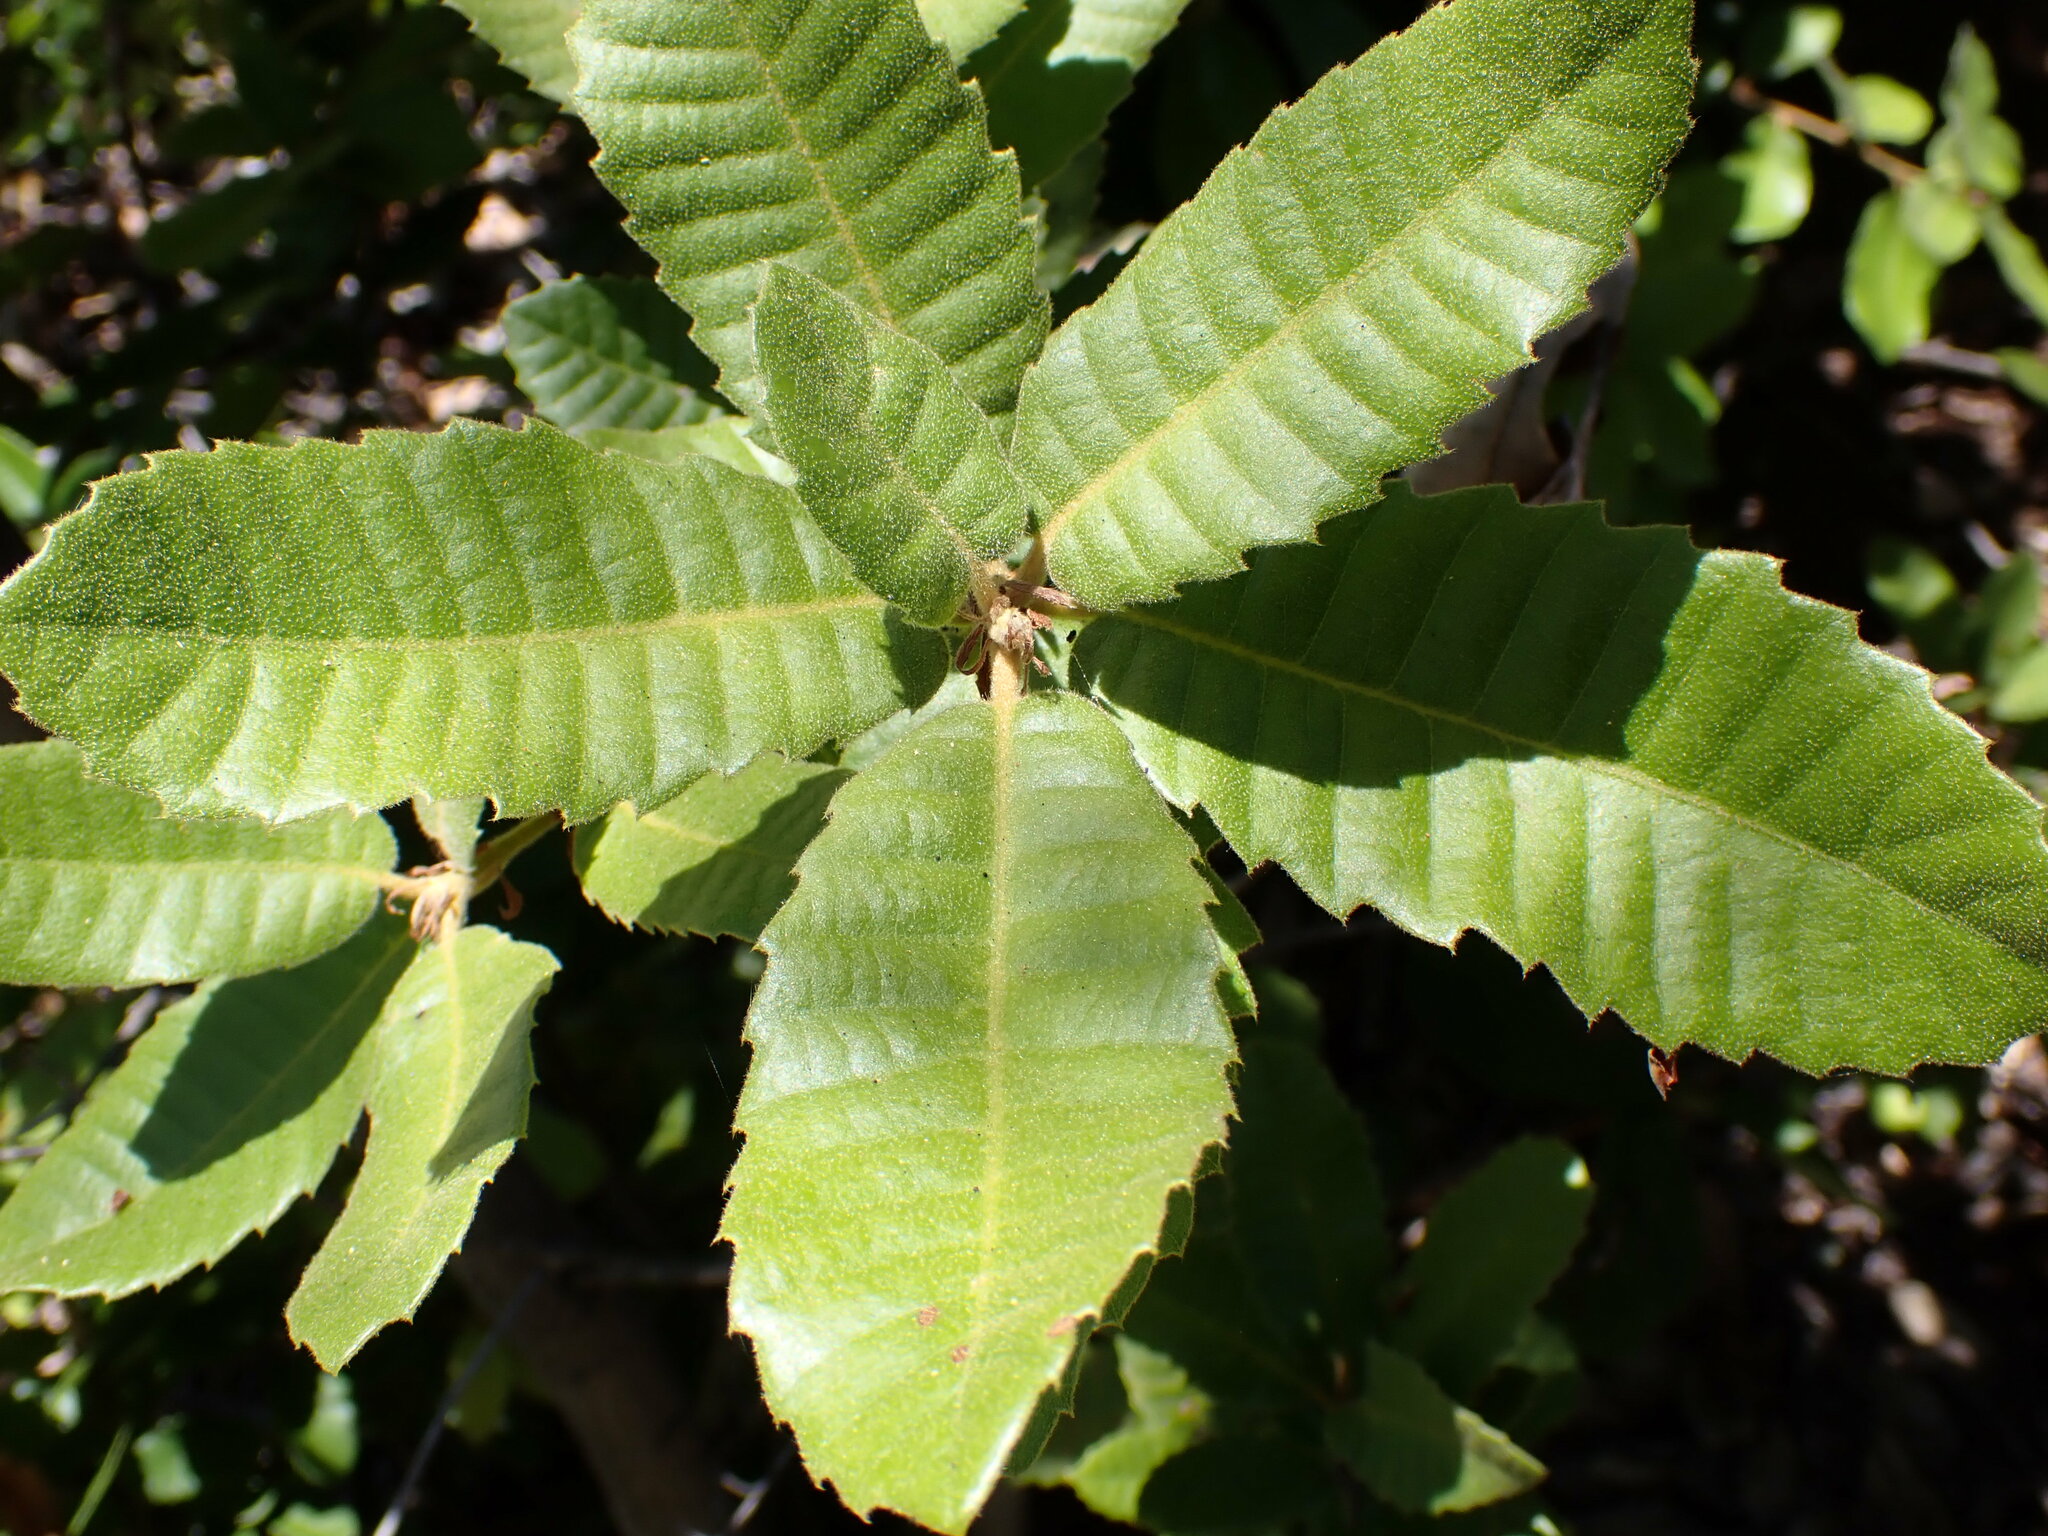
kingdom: Plantae
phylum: Tracheophyta
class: Magnoliopsida
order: Fagales
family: Fagaceae
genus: Notholithocarpus
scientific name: Notholithocarpus densiflorus
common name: Tan bark oak
